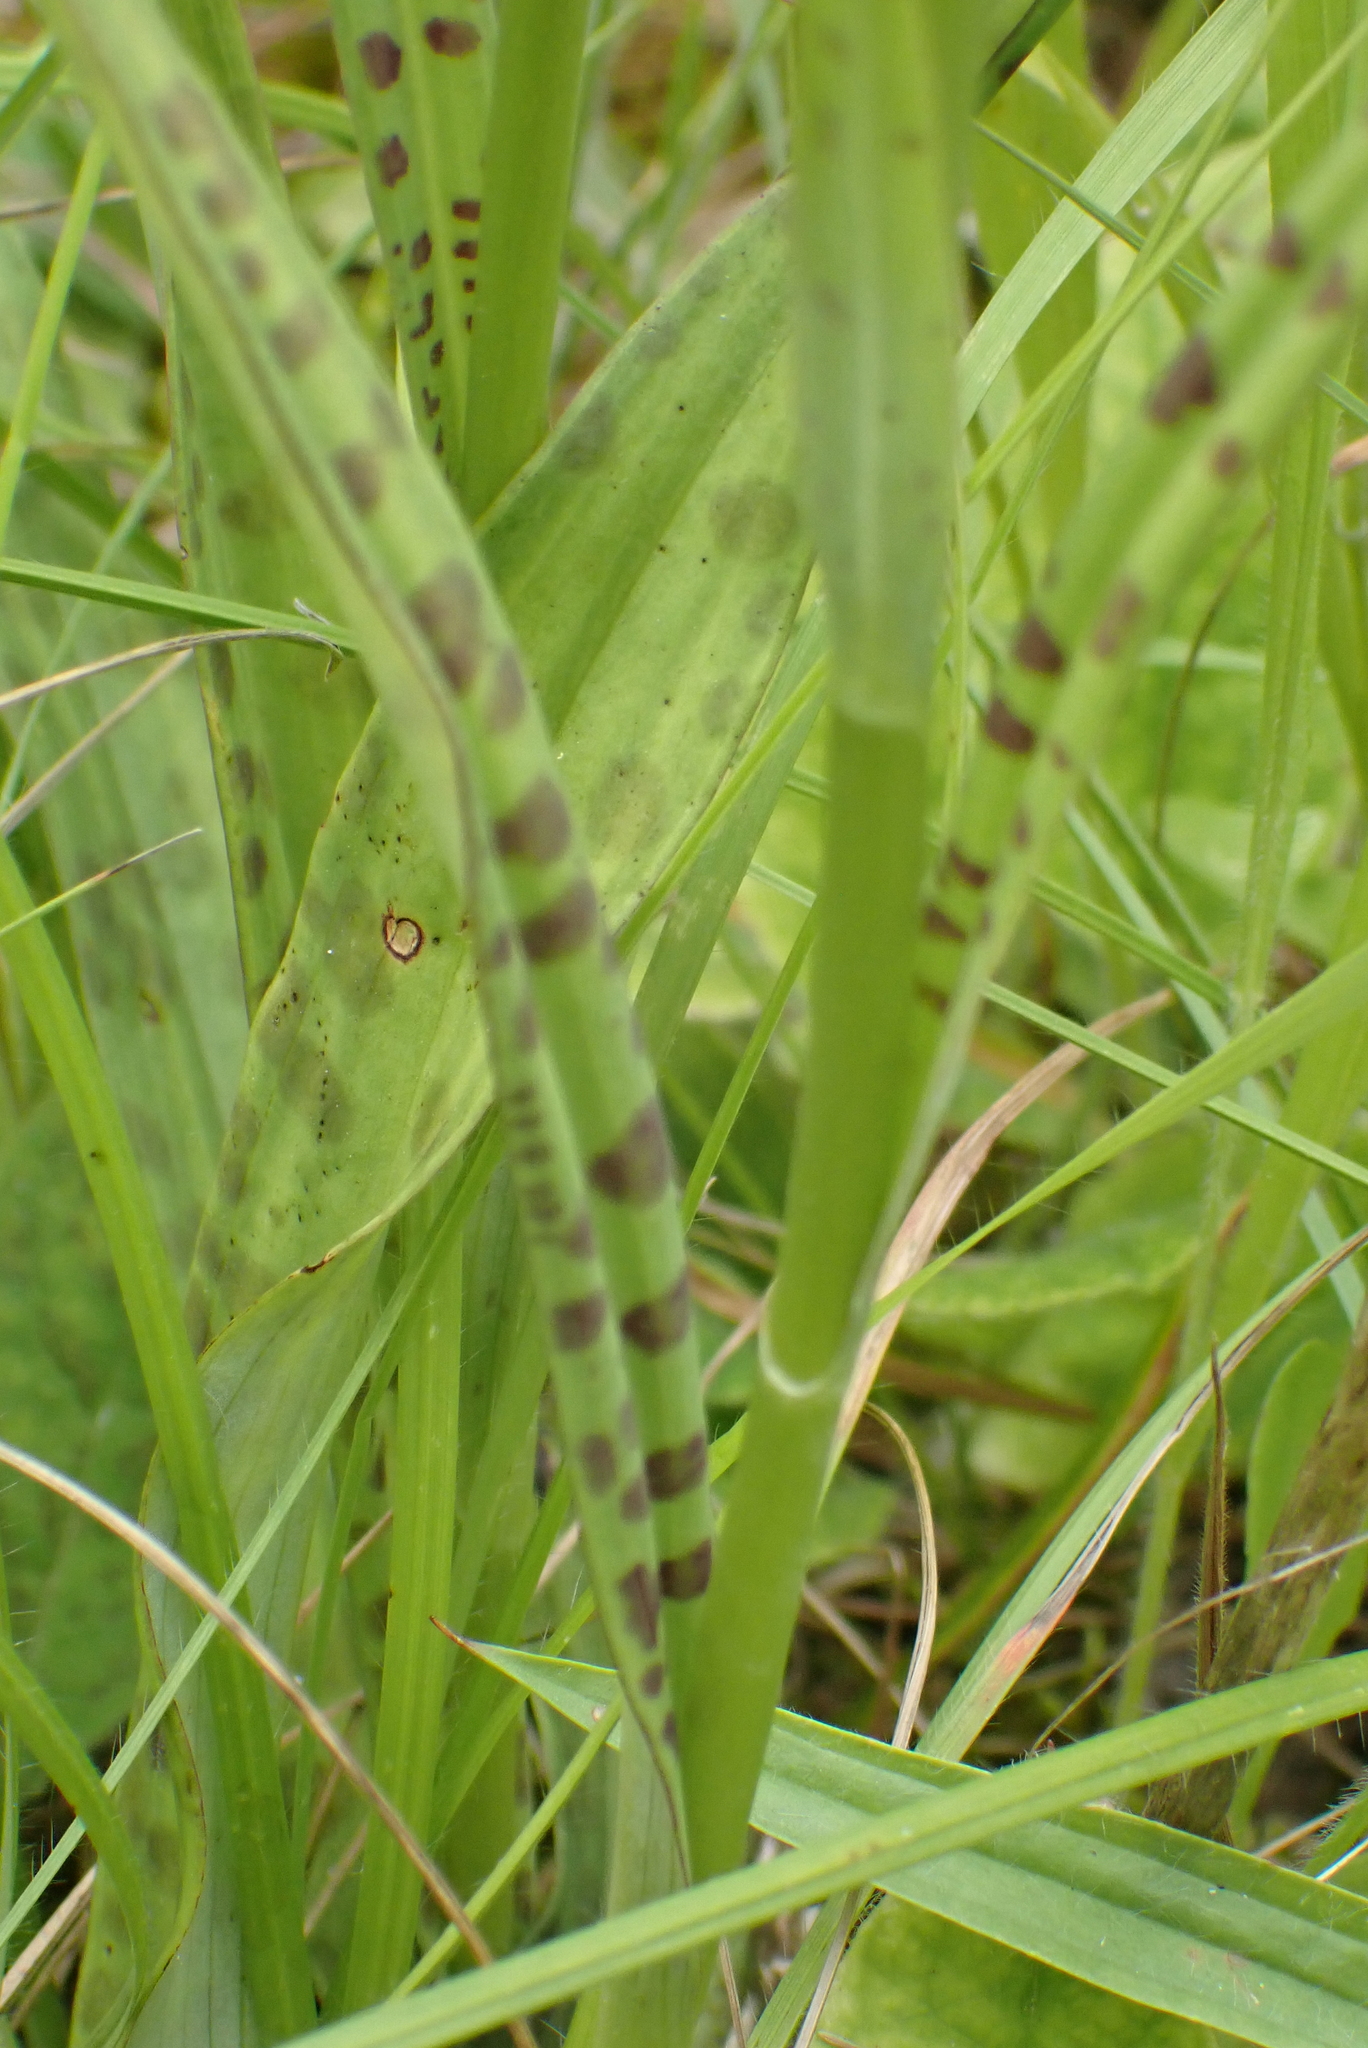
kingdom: Plantae
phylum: Tracheophyta
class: Liliopsida
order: Asparagales
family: Orchidaceae
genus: Dactylorhiza
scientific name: Dactylorhiza maculata
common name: Heath spotted-orchid
